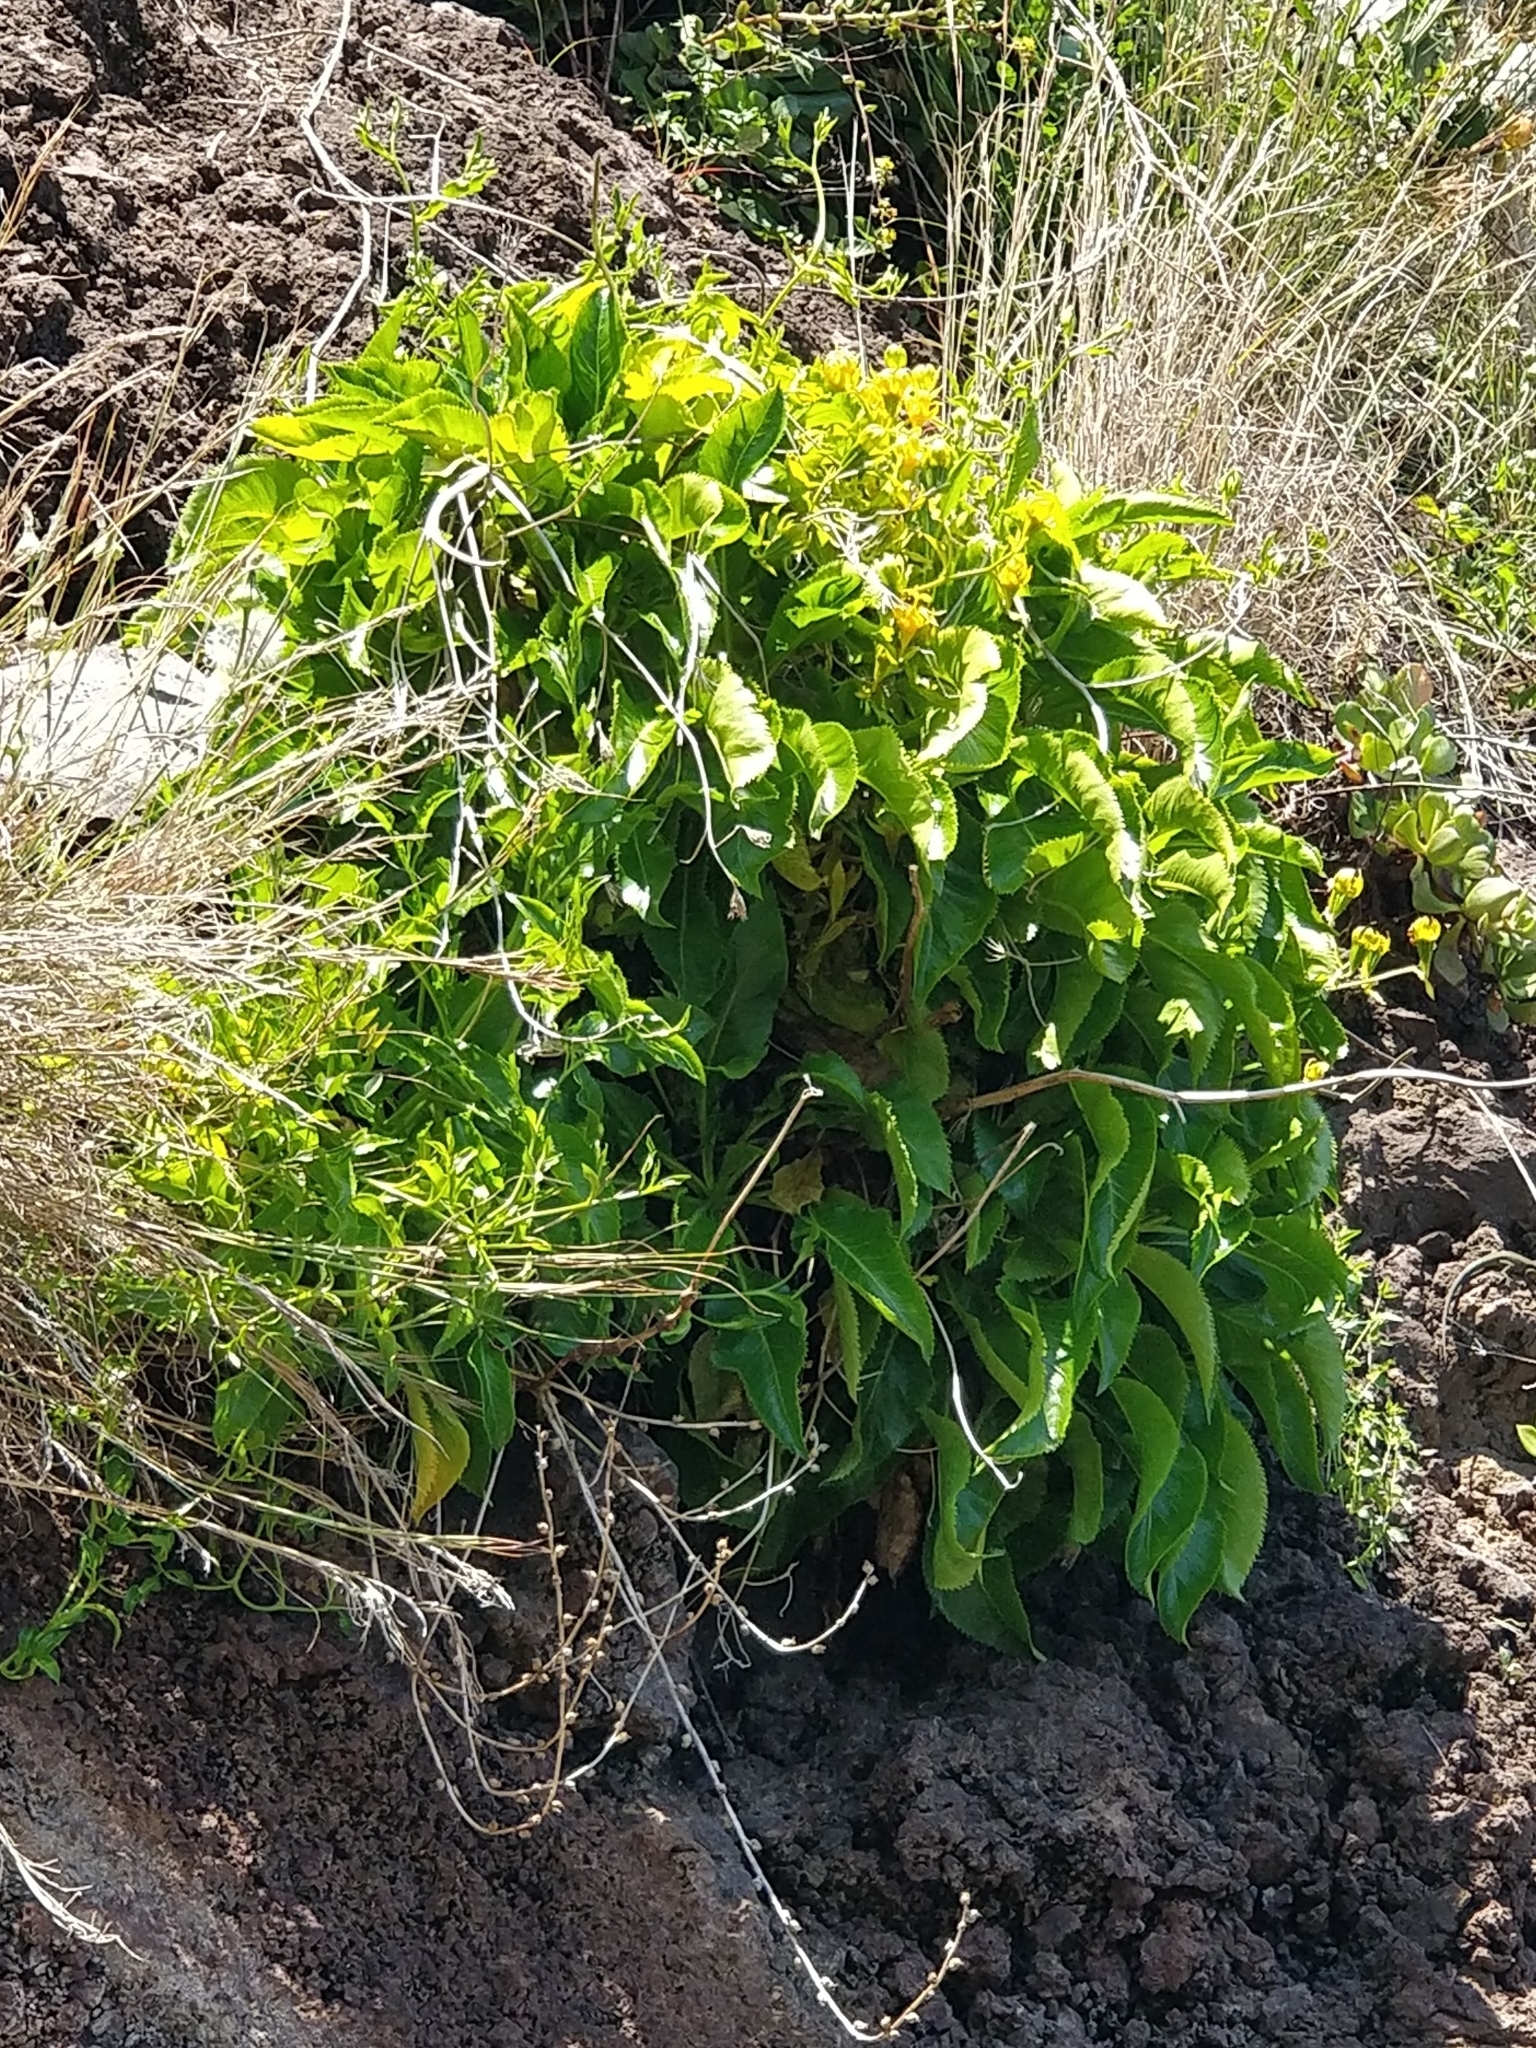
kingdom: Plantae
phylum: Tracheophyta
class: Magnoliopsida
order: Asterales
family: Campanulaceae
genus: Musschia
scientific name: Musschia aurea
